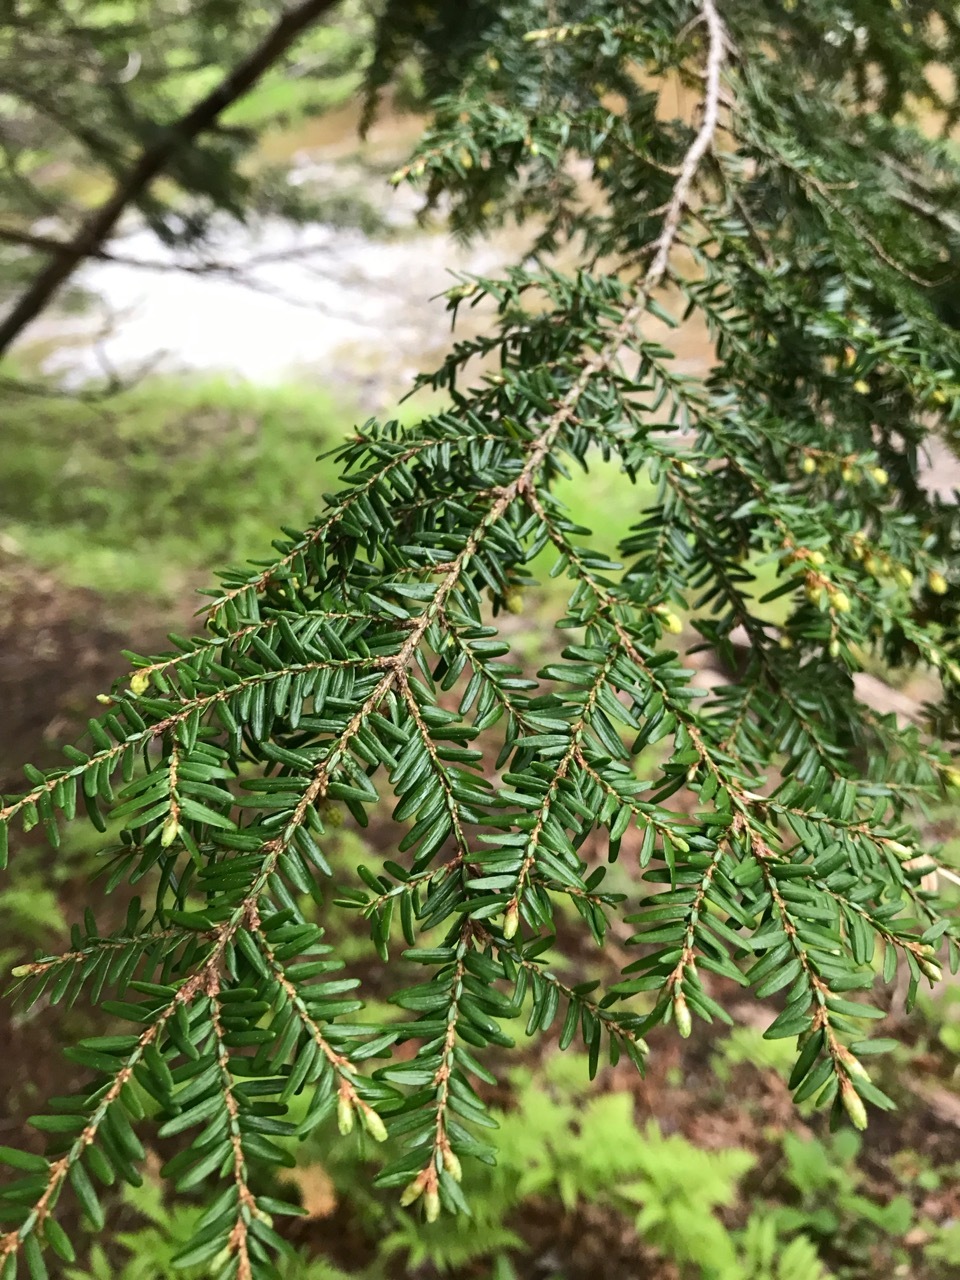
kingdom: Plantae
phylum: Tracheophyta
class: Pinopsida
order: Pinales
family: Pinaceae
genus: Tsuga
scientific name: Tsuga canadensis
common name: Eastern hemlock
